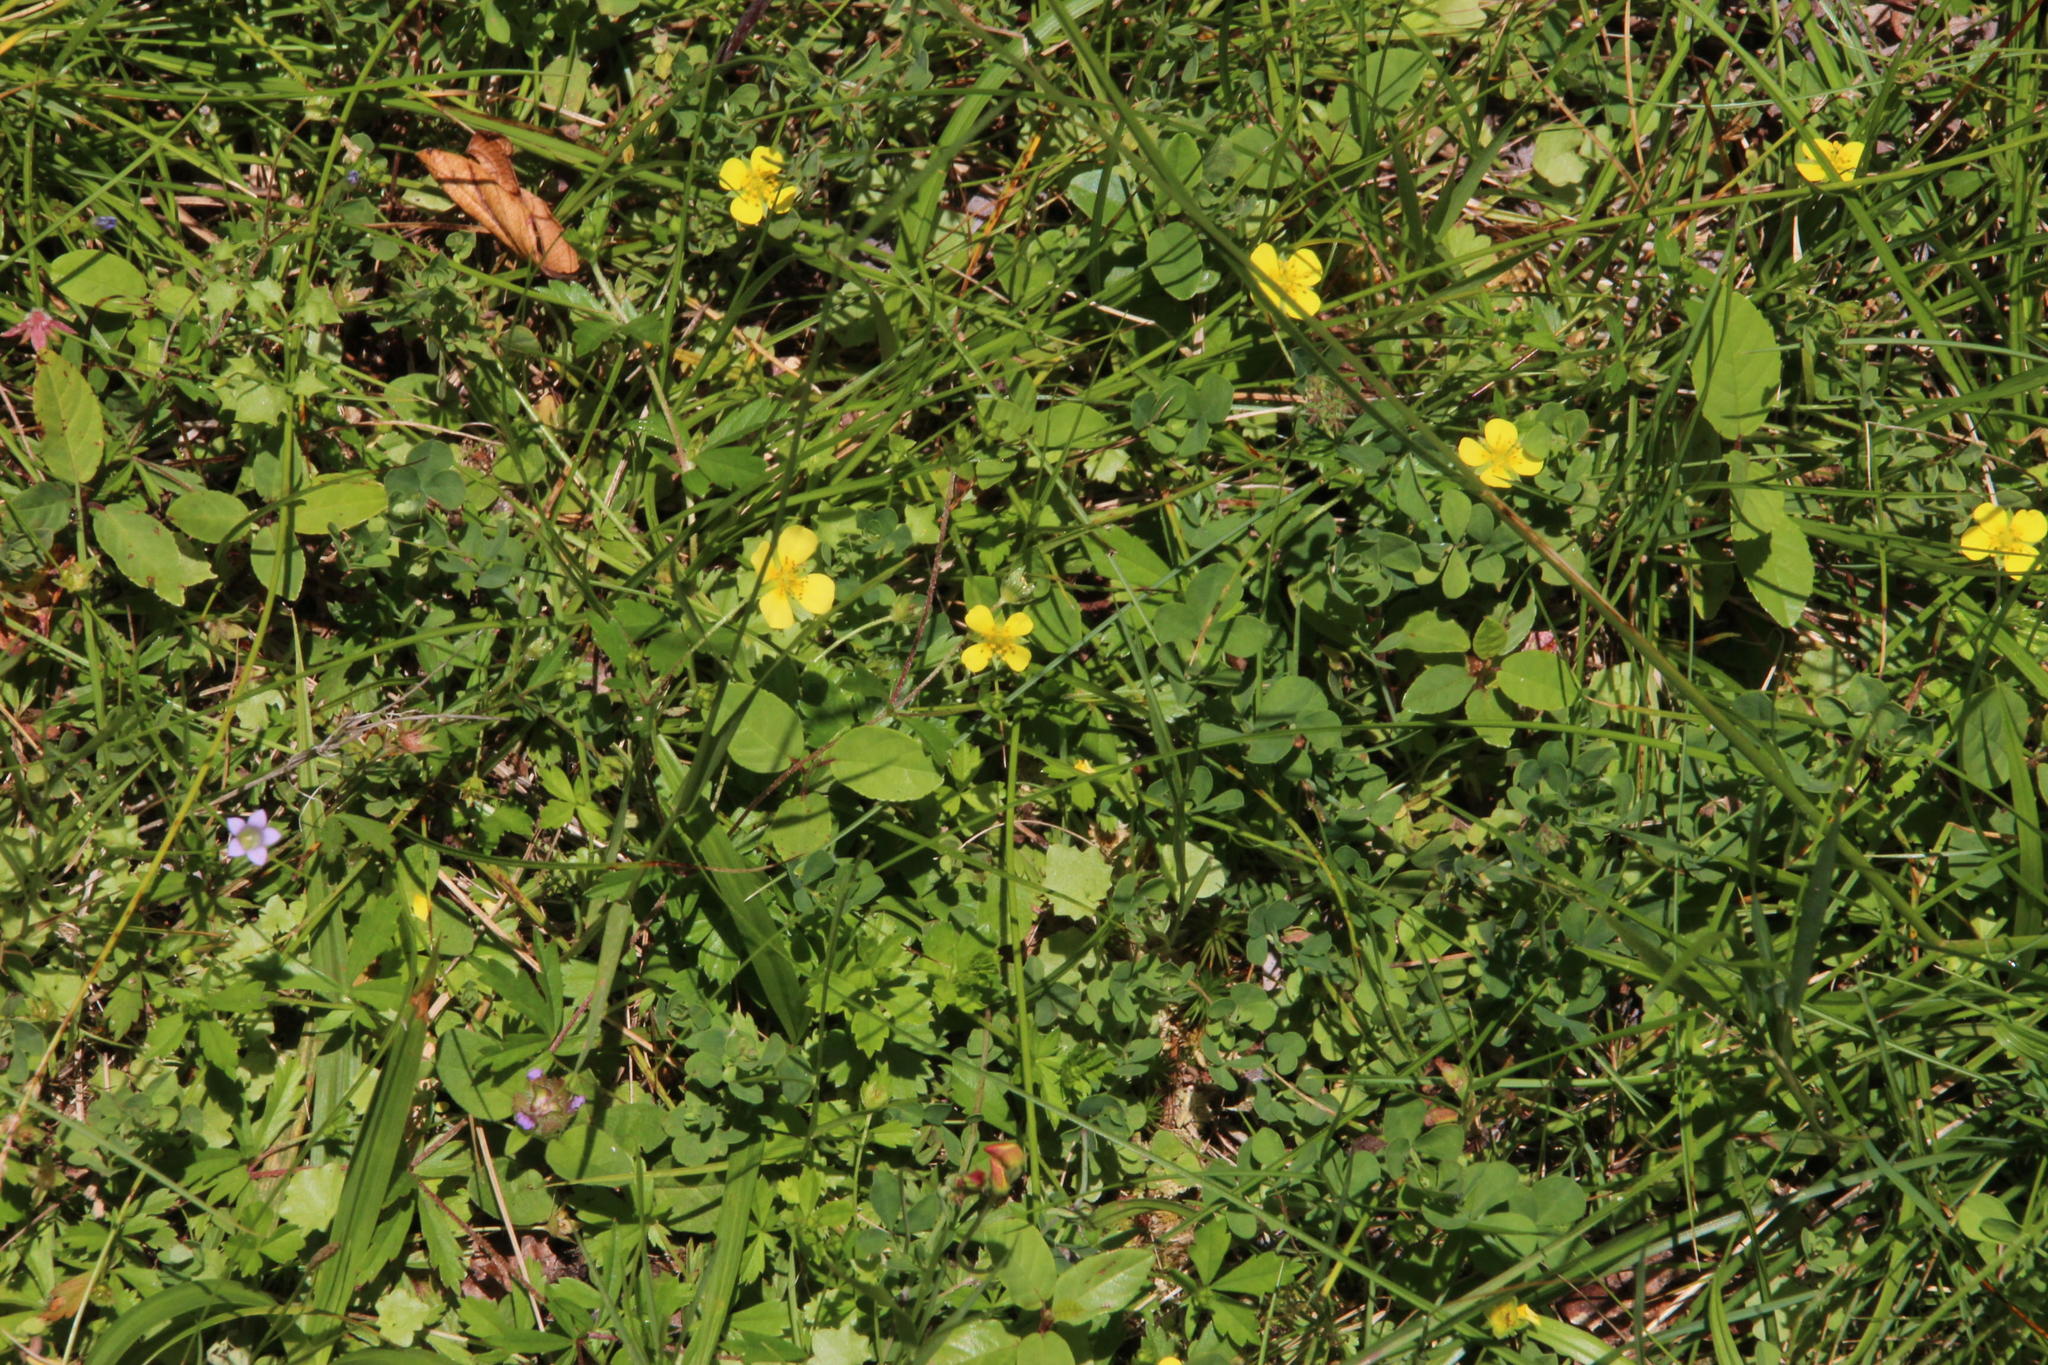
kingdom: Plantae
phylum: Tracheophyta
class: Magnoliopsida
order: Rosales
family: Rosaceae
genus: Potentilla
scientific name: Potentilla erecta
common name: Tormentil
